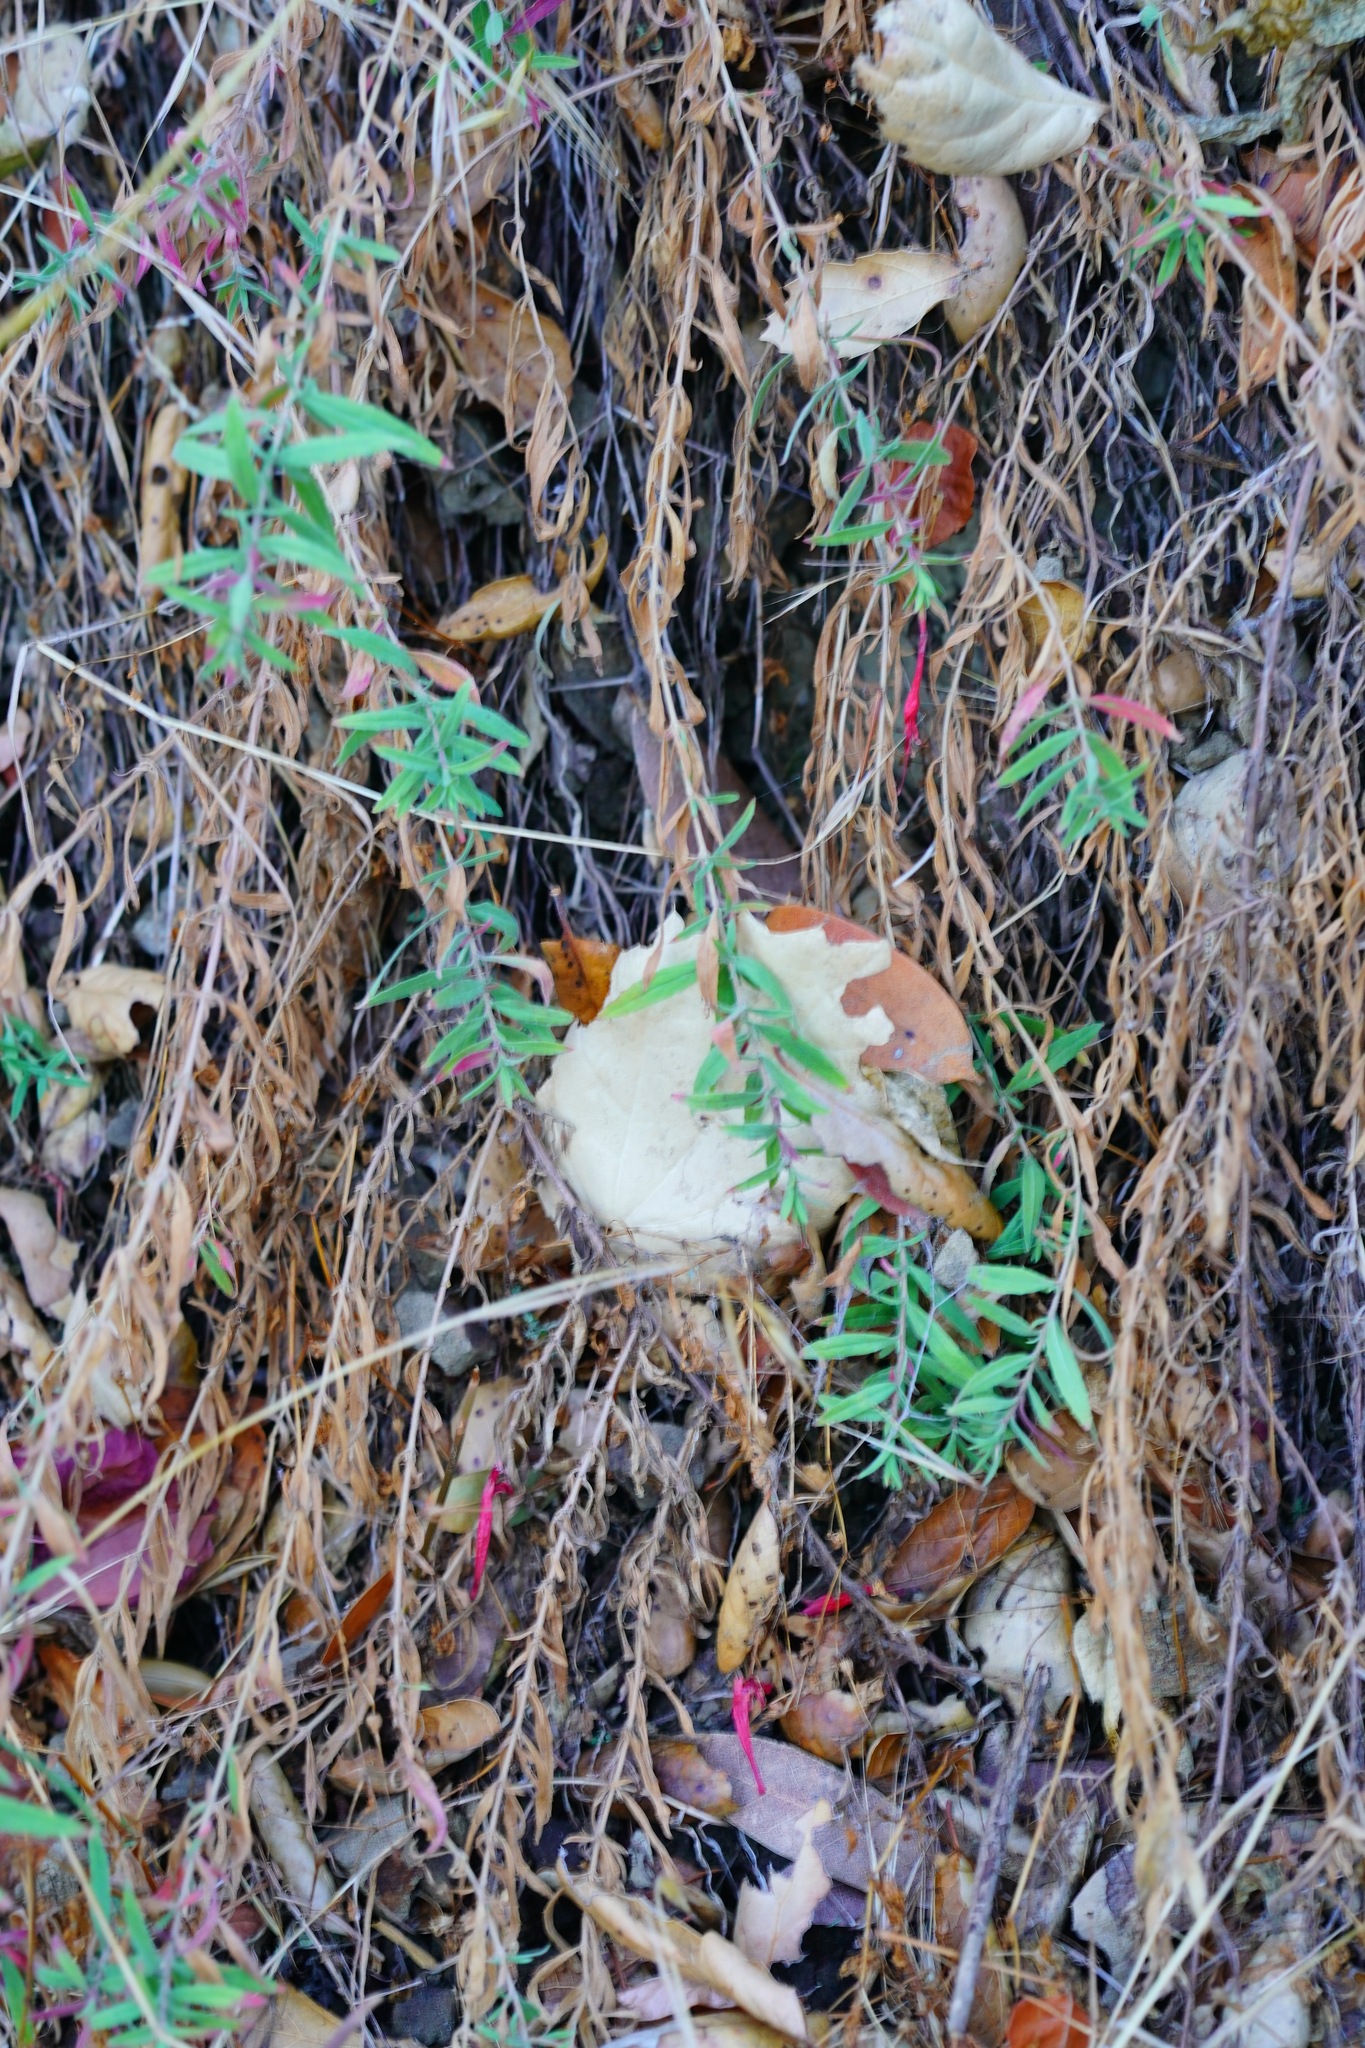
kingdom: Plantae
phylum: Tracheophyta
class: Magnoliopsida
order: Myrtales
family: Onagraceae
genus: Epilobium
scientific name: Epilobium canum
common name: California-fuchsia
